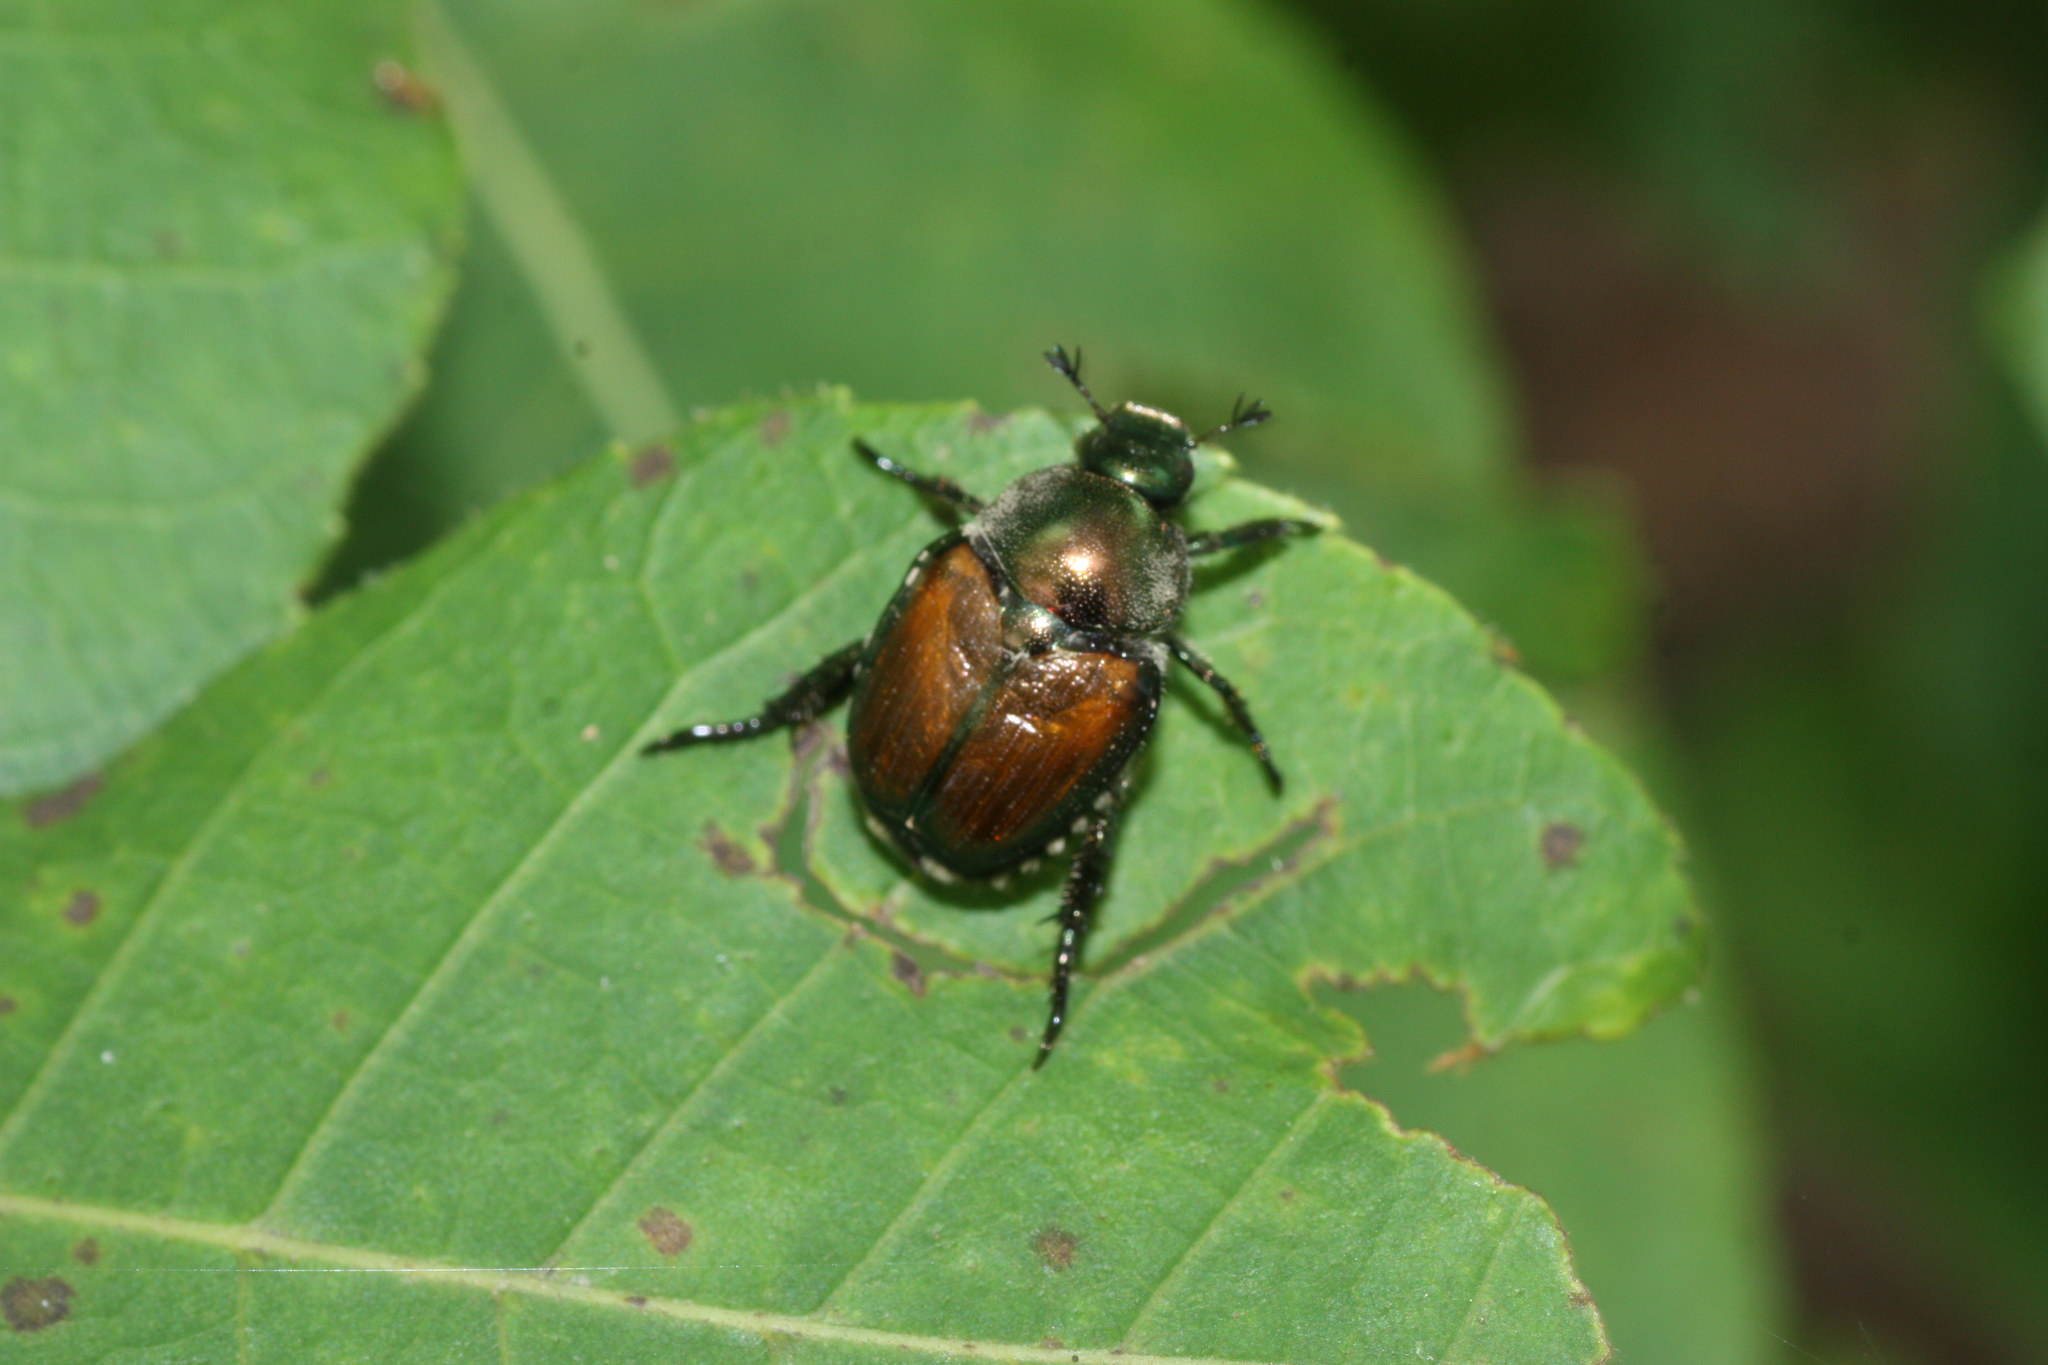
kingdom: Animalia
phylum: Arthropoda
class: Insecta
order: Coleoptera
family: Scarabaeidae
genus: Popillia
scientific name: Popillia japonica
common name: Japanese beetle
